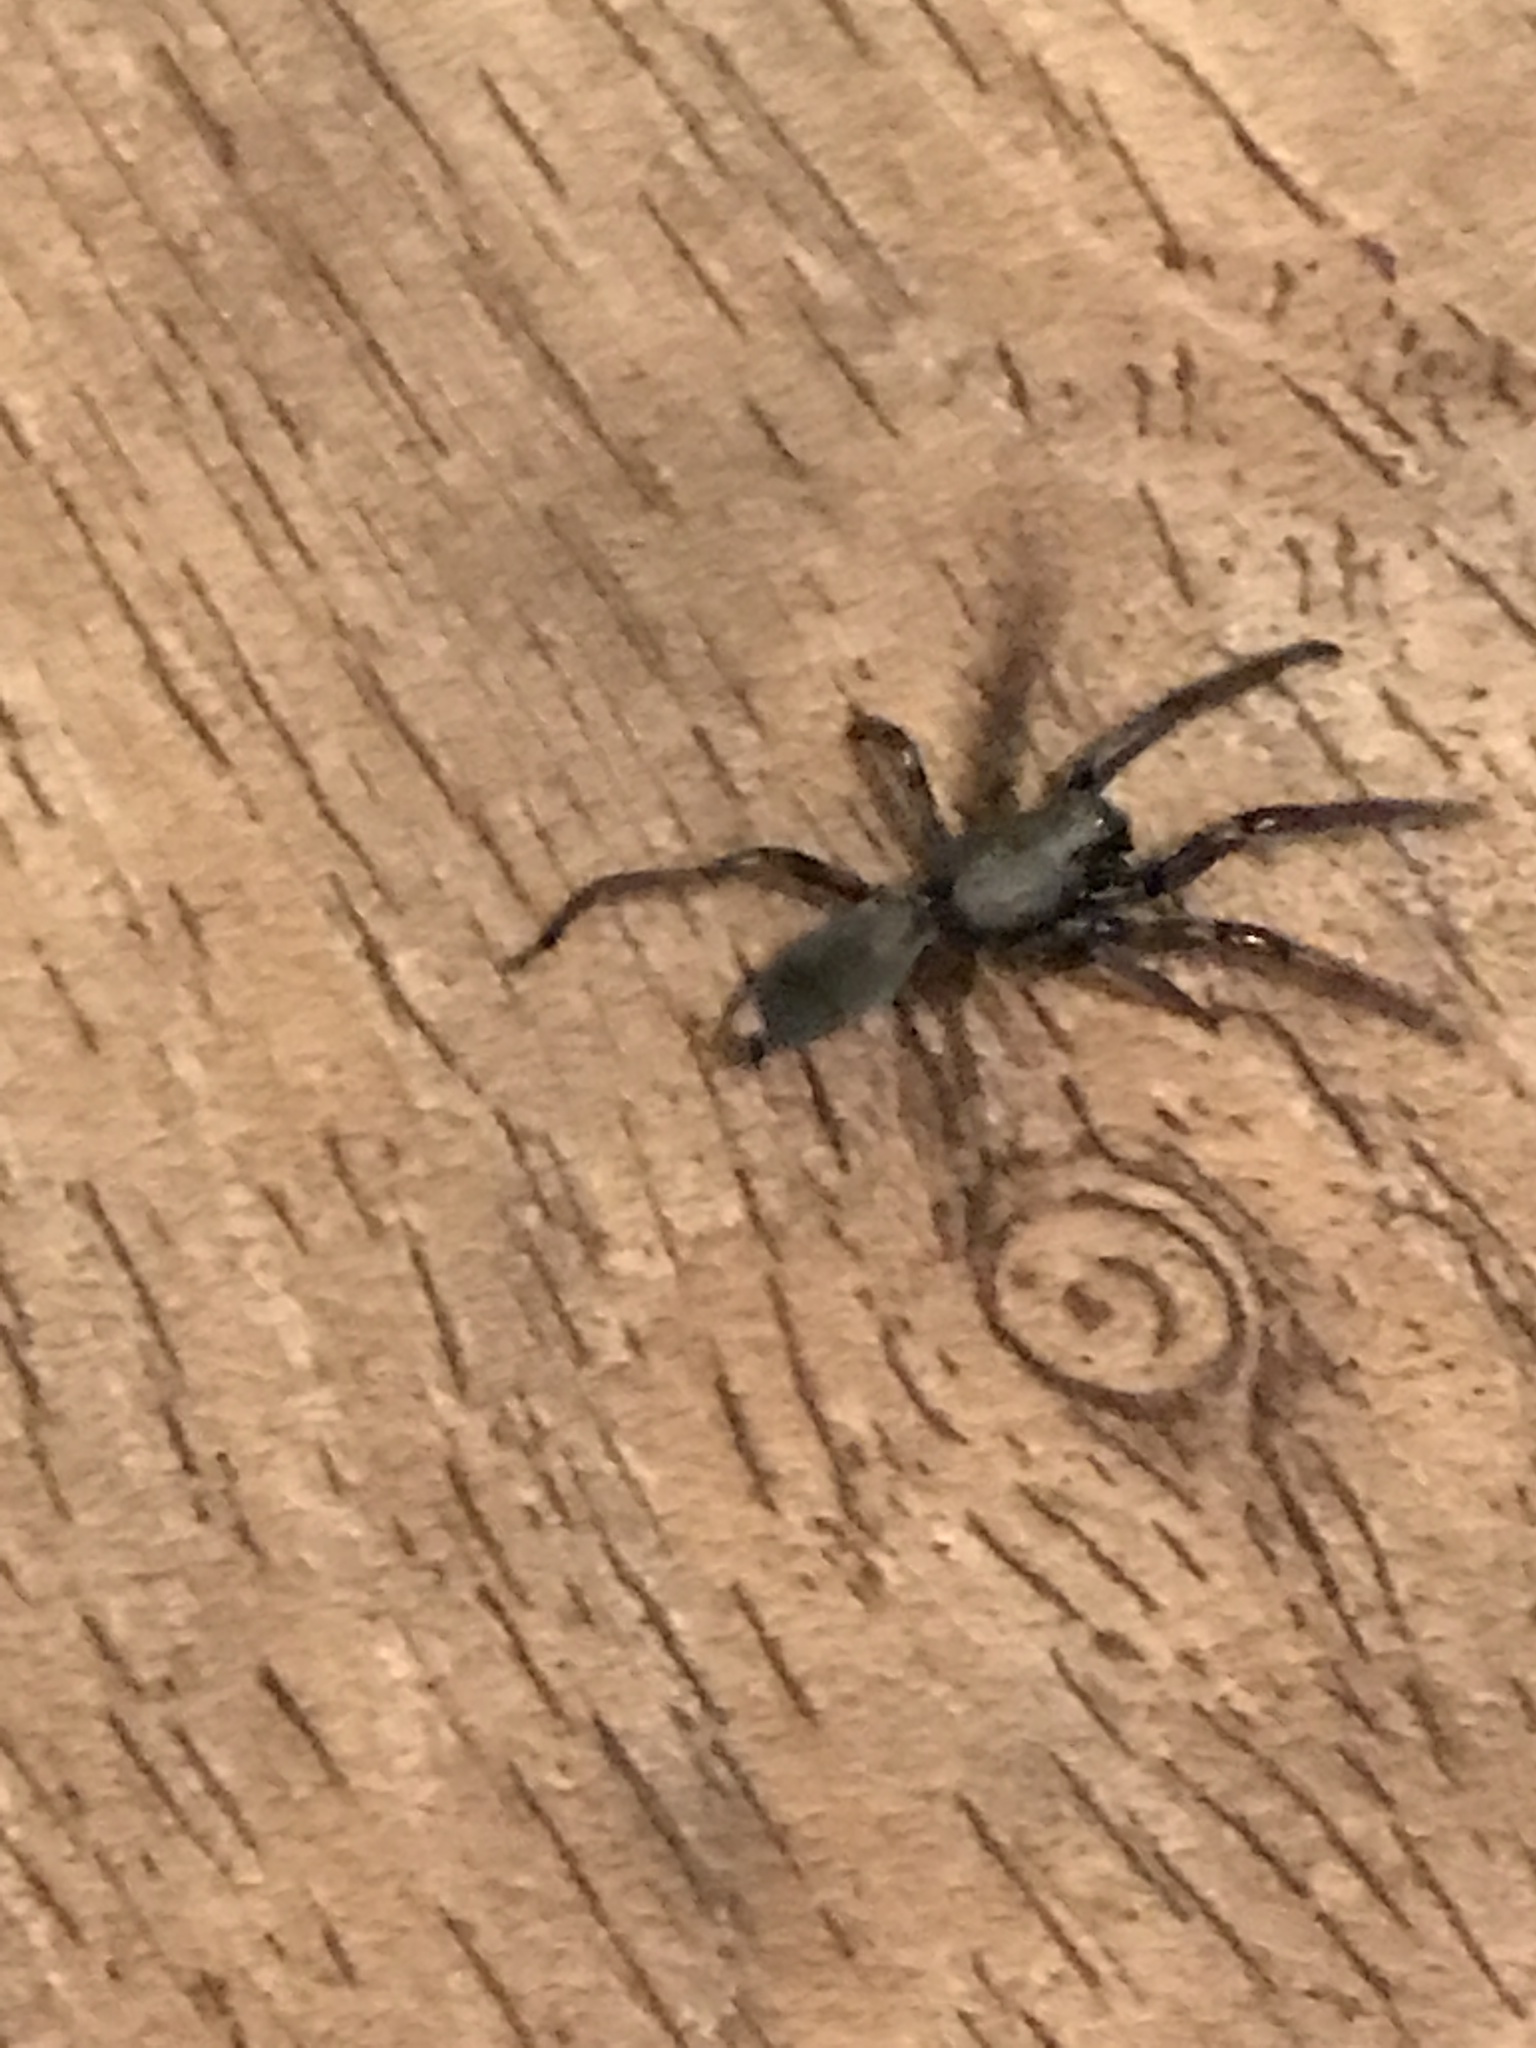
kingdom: Animalia
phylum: Arthropoda
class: Arachnida
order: Araneae
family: Lamponidae
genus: Lampona
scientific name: Lampona cylindrata
